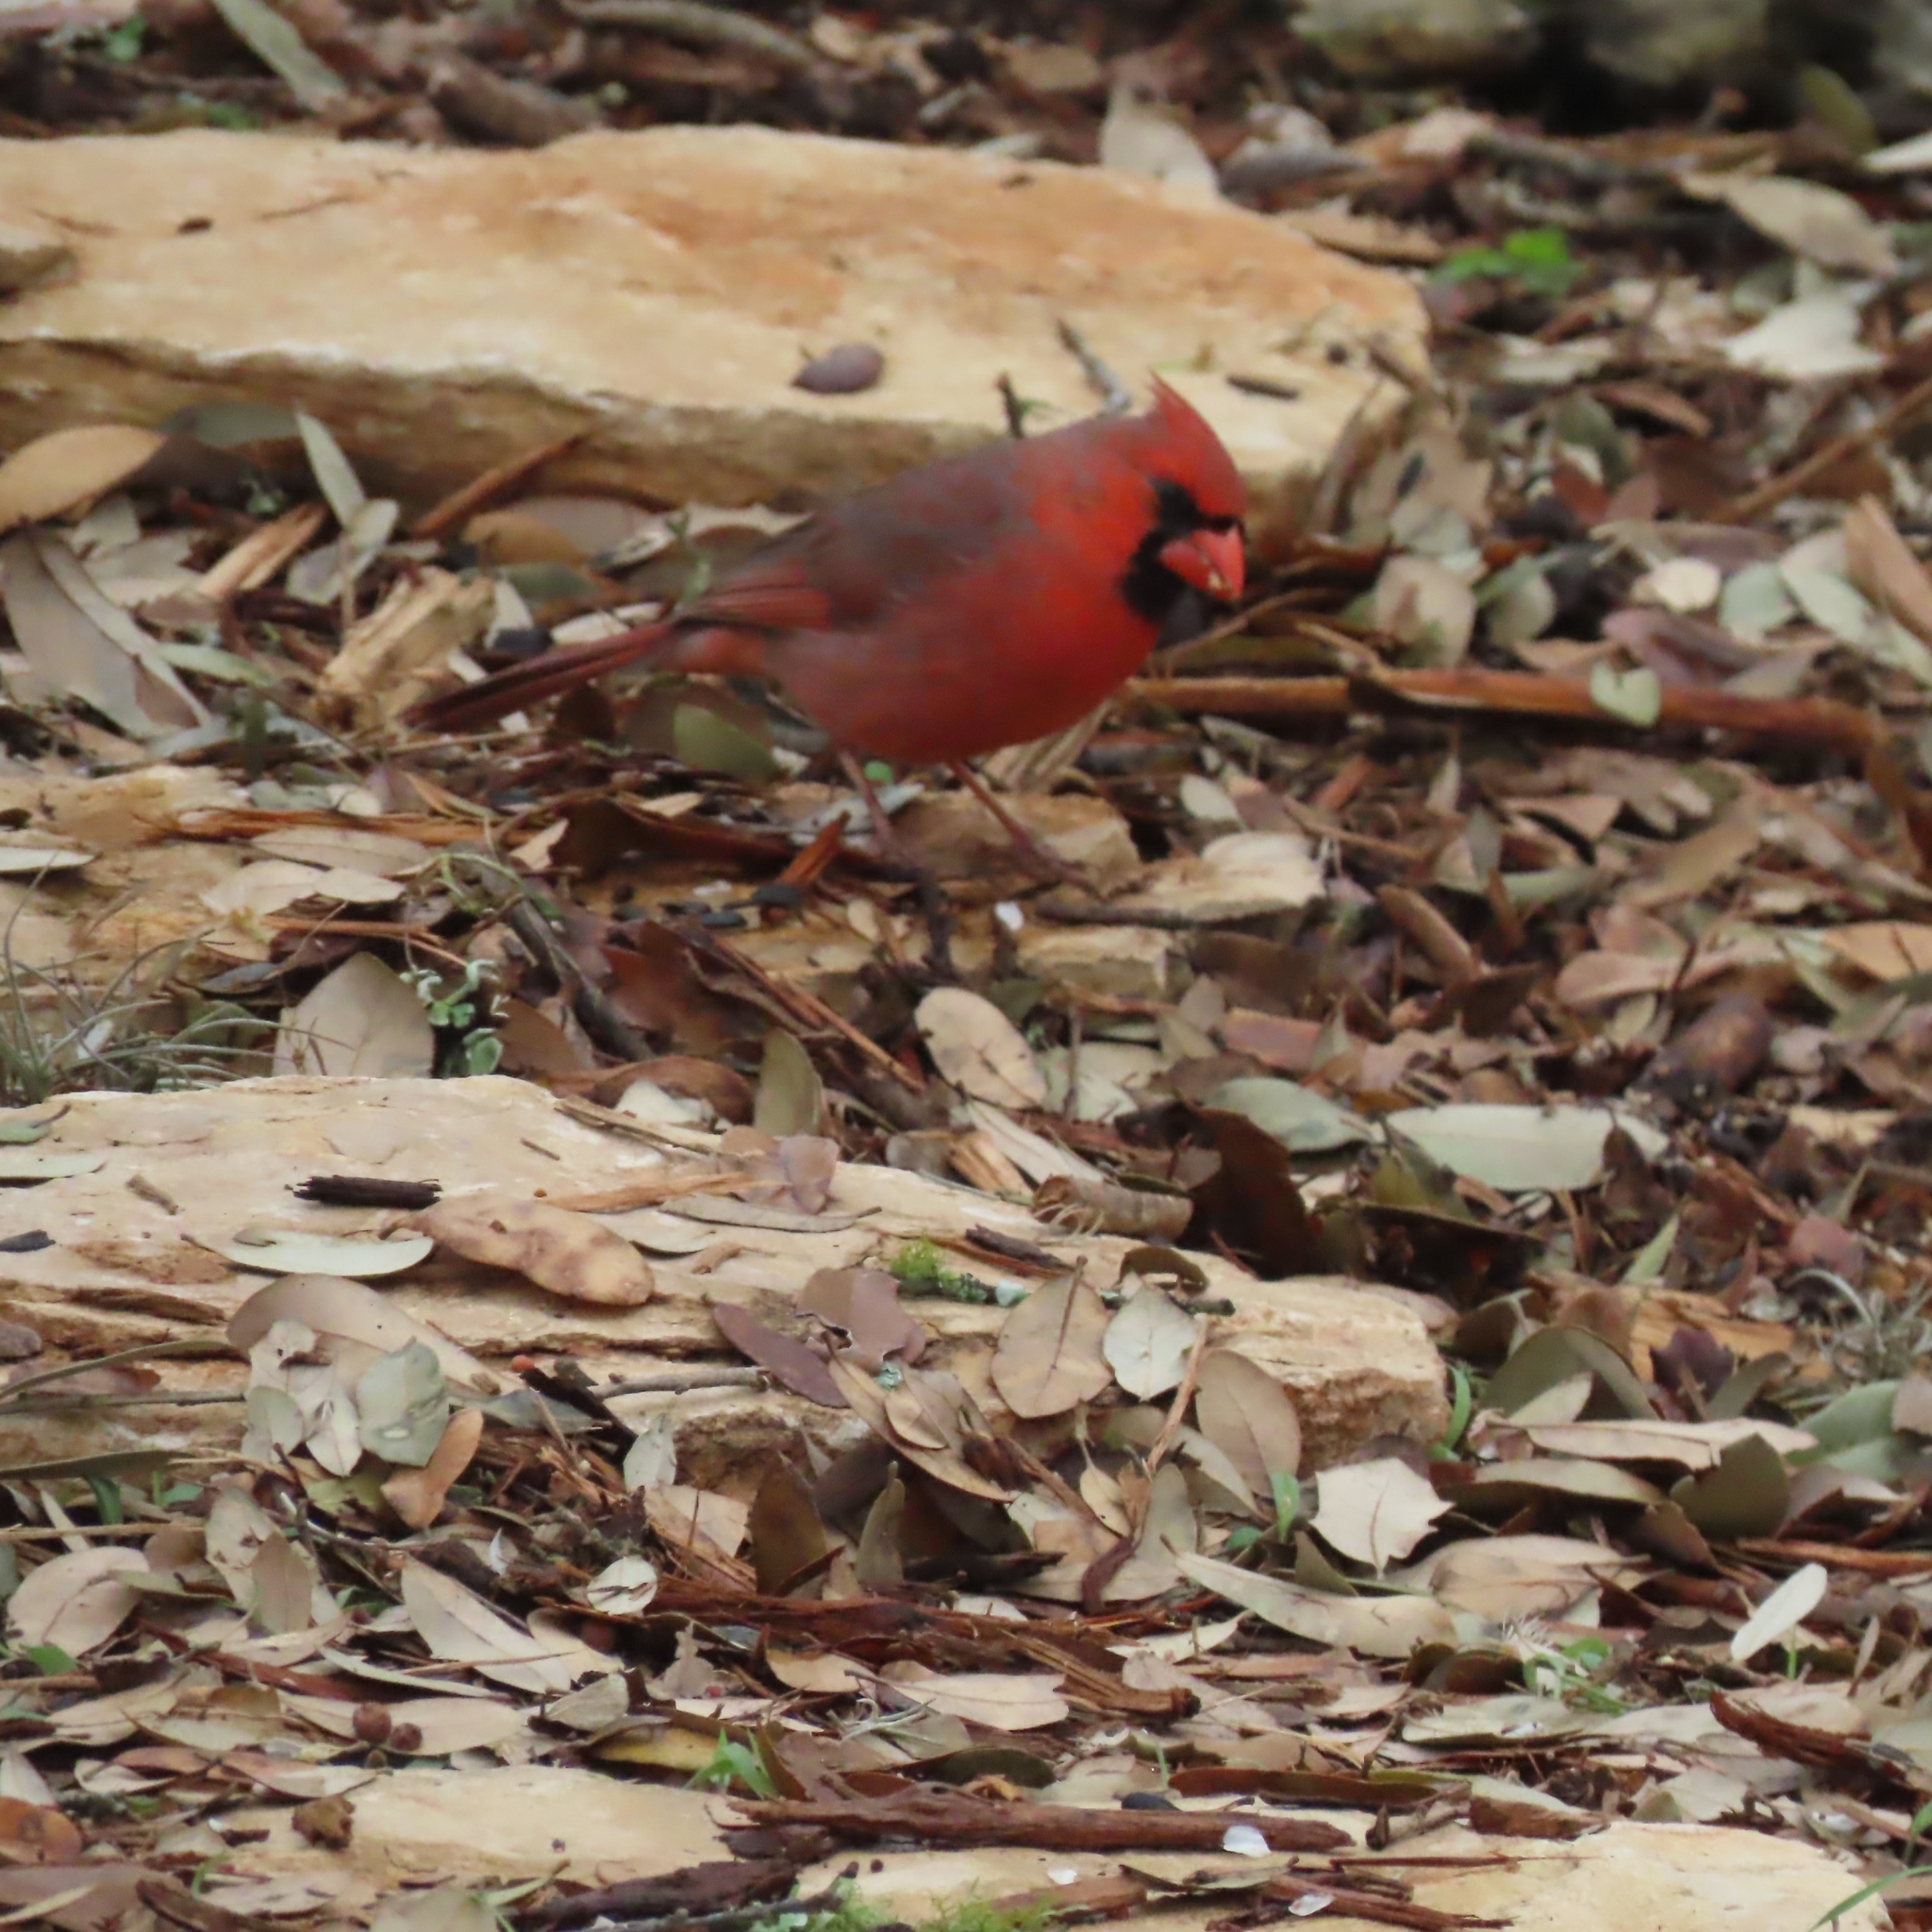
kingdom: Animalia
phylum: Chordata
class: Aves
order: Passeriformes
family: Cardinalidae
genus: Cardinalis
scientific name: Cardinalis cardinalis
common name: Northern cardinal
